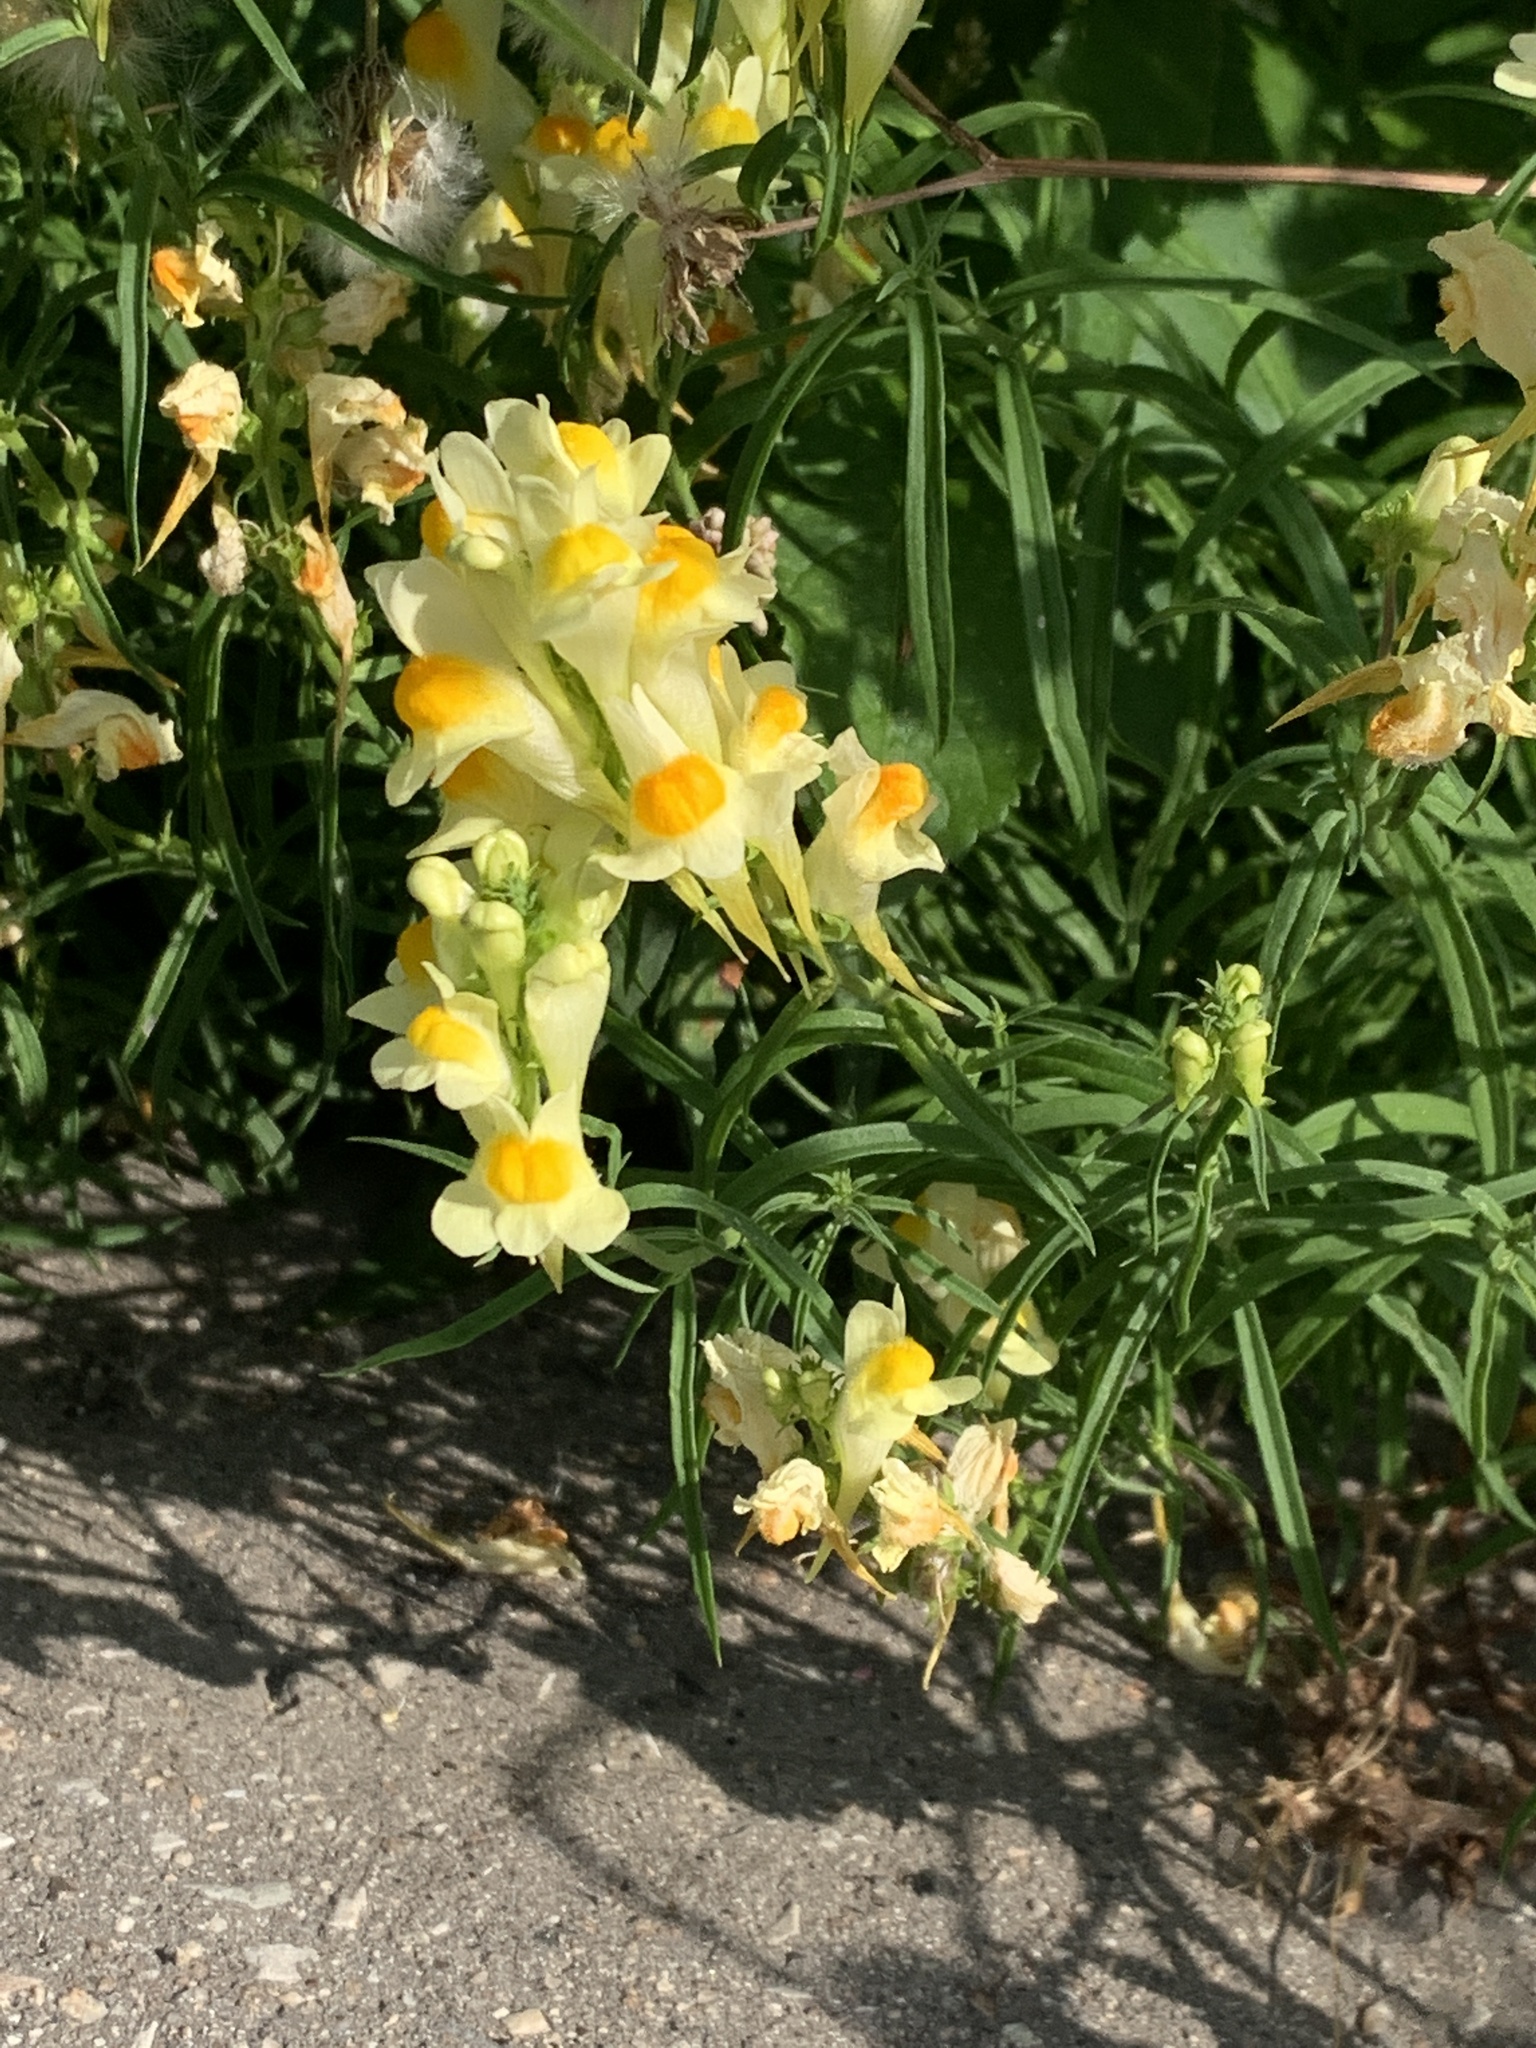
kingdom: Plantae
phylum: Tracheophyta
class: Magnoliopsida
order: Lamiales
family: Plantaginaceae
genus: Linaria
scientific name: Linaria vulgaris
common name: Butter and eggs
